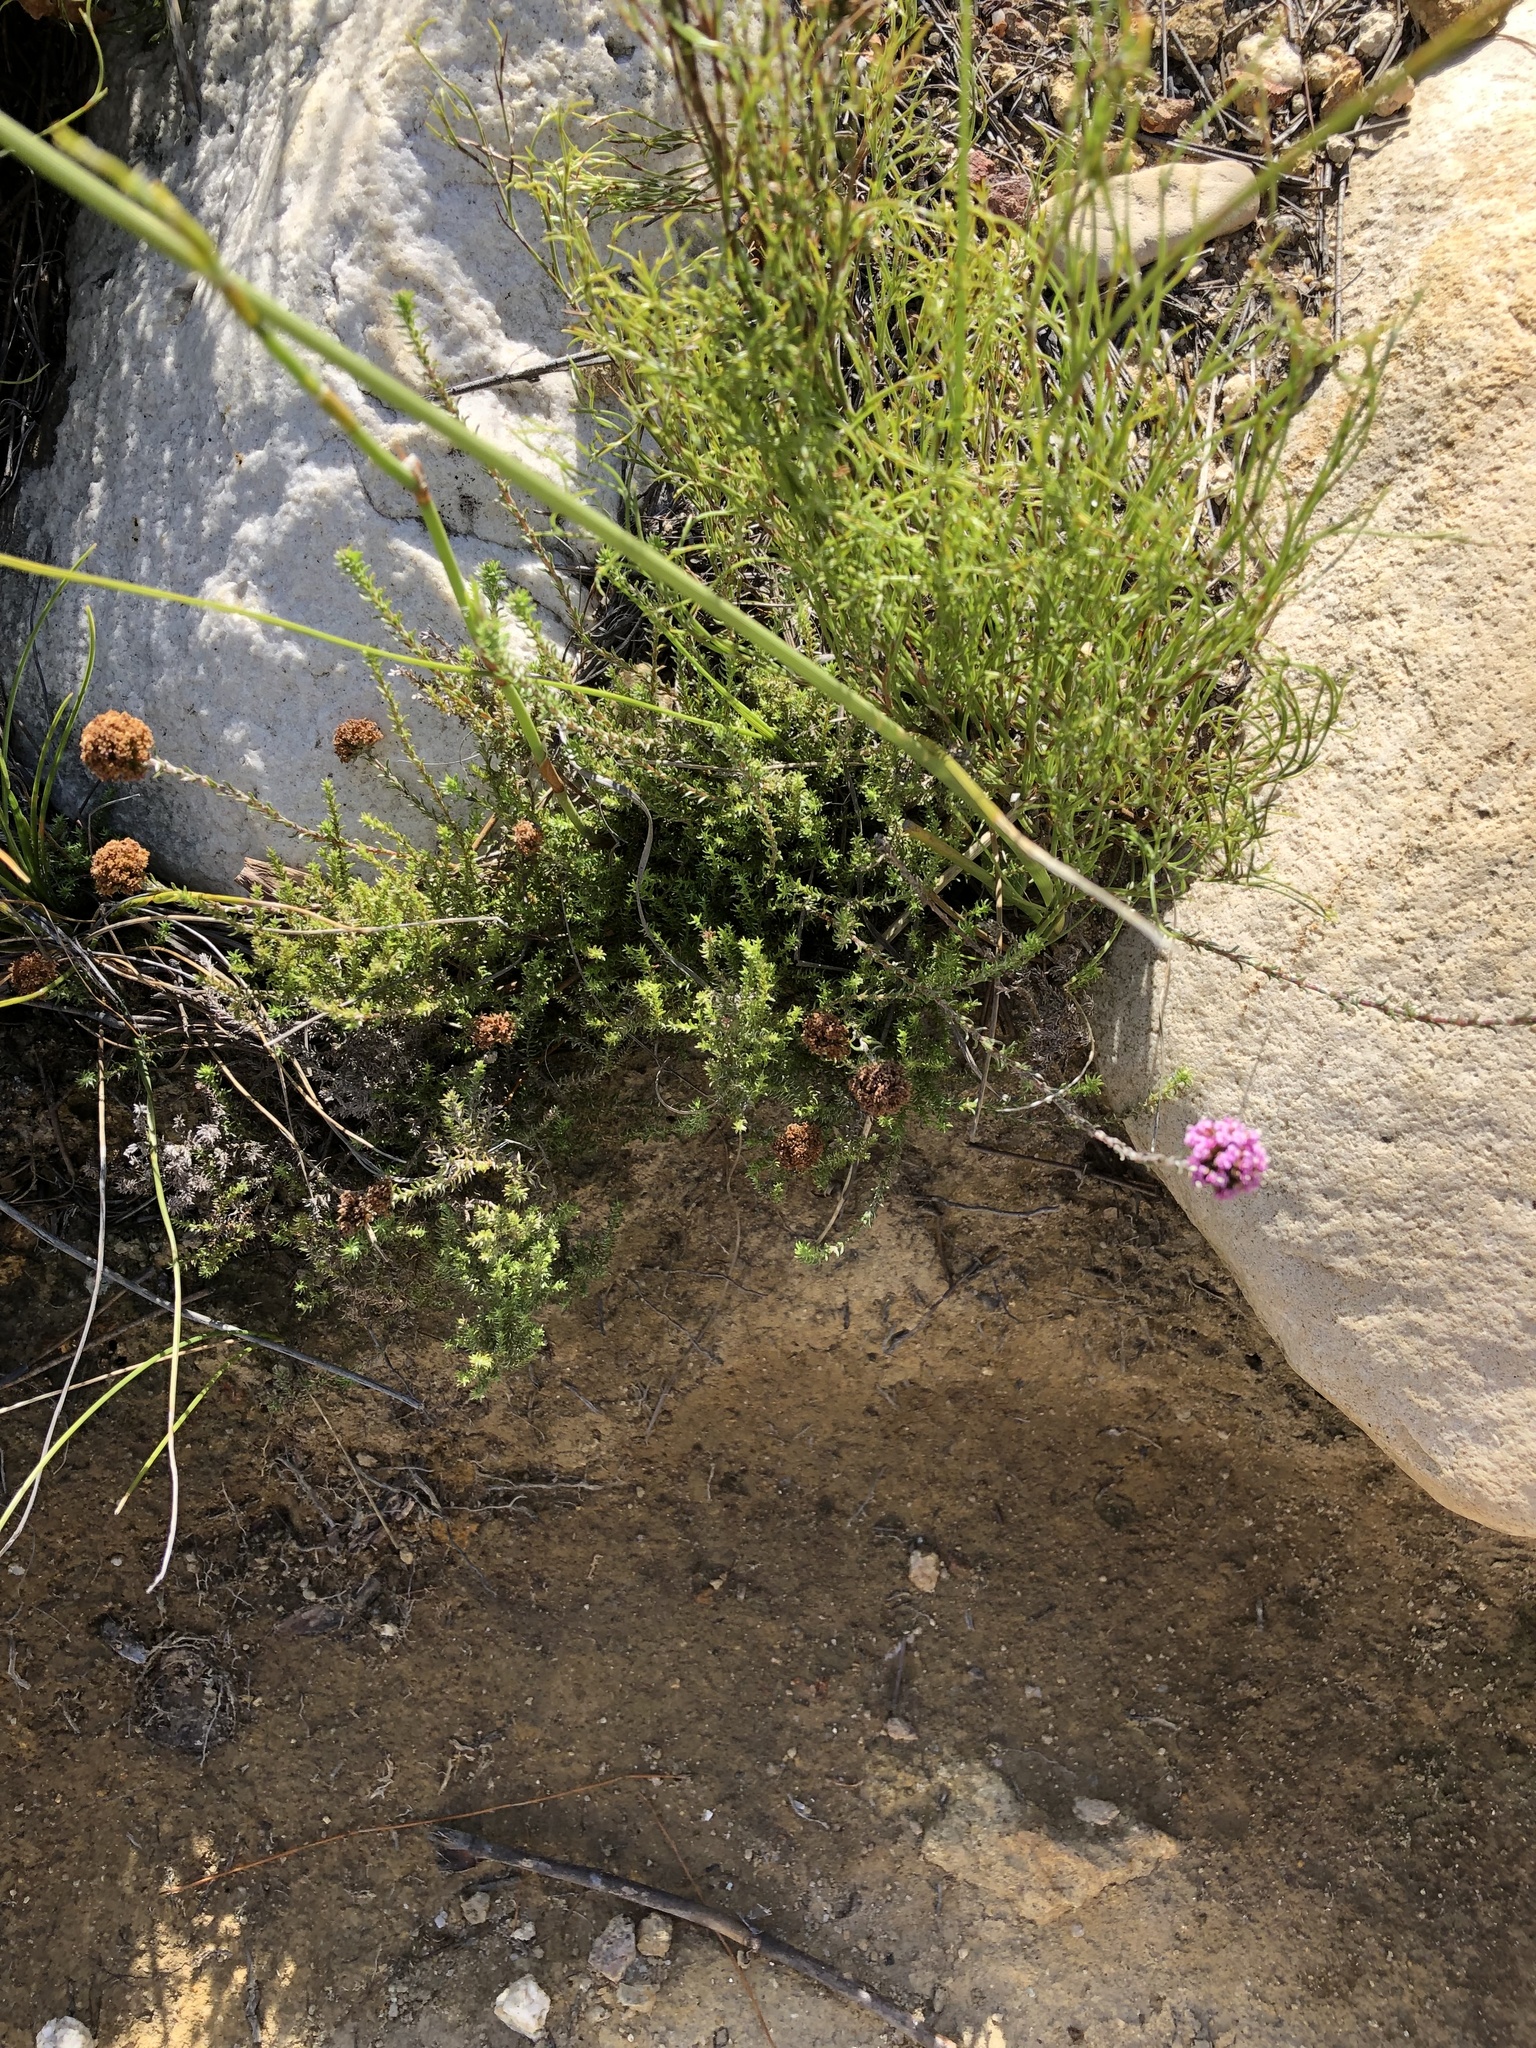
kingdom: Plantae
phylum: Tracheophyta
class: Magnoliopsida
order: Asterales
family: Asteraceae
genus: Stoebe
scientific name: Stoebe capitata
